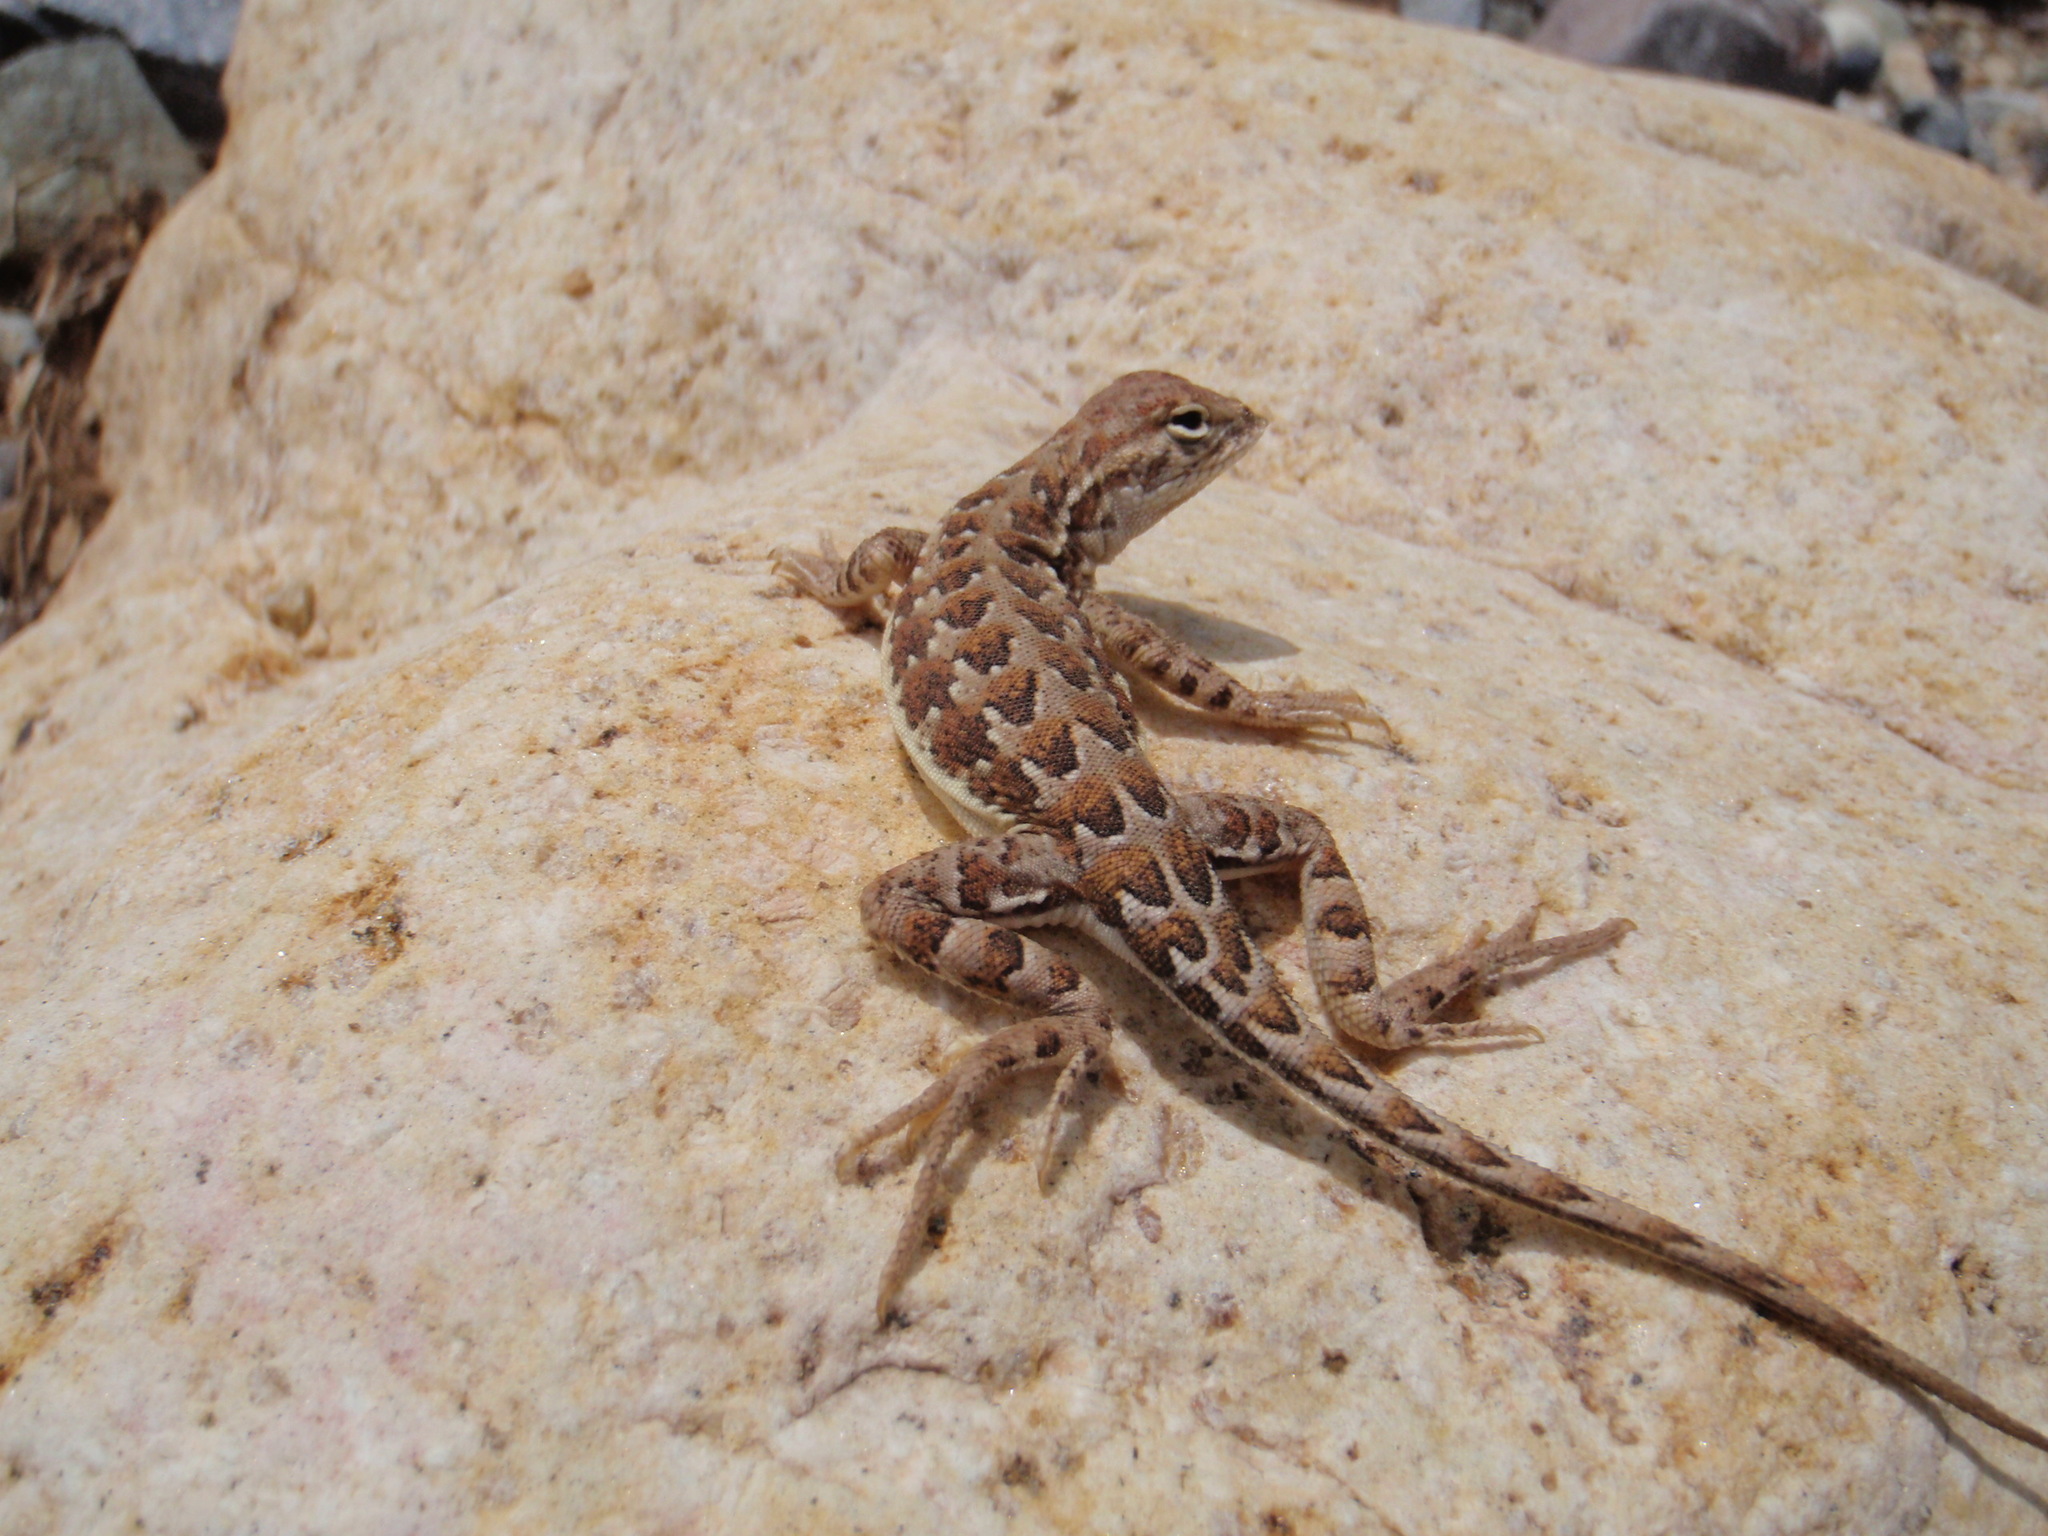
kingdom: Animalia
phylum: Chordata
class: Squamata
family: Phrynosomatidae
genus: Holbrookia
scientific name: Holbrookia elegans
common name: Elegant earless lizard
